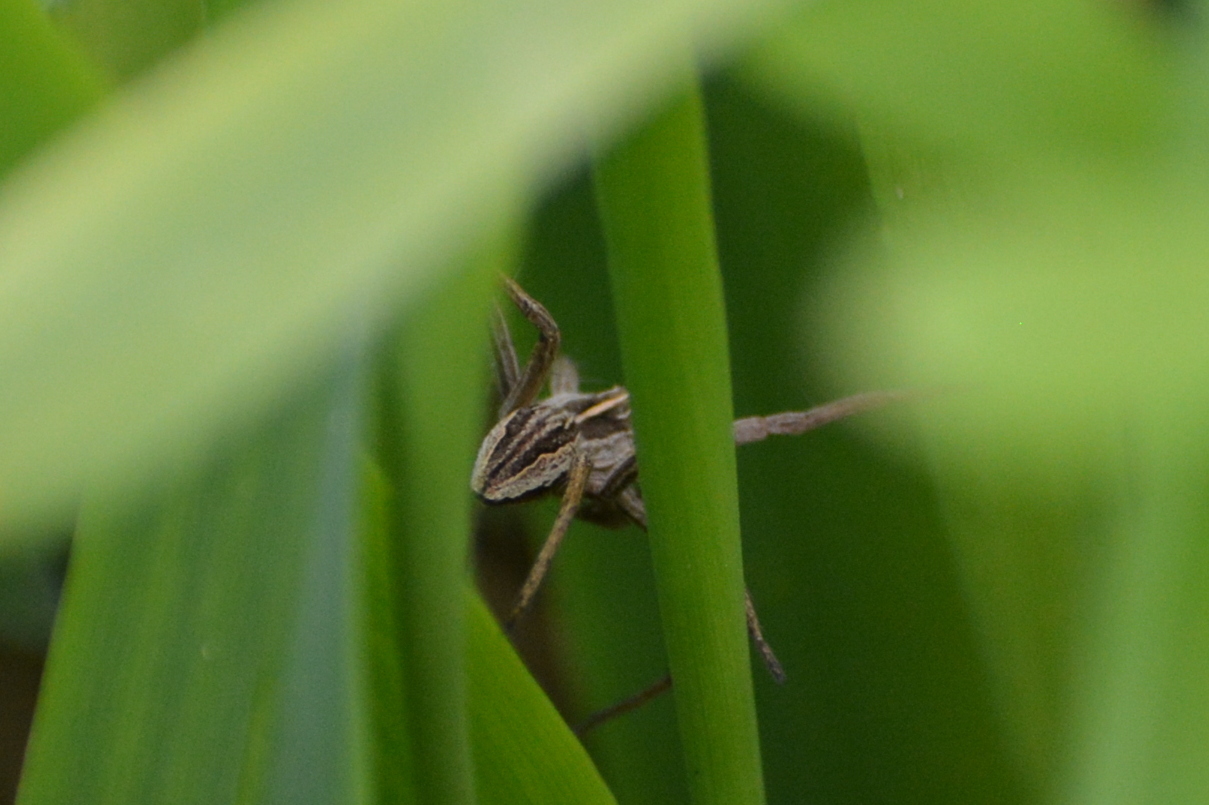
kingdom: Animalia
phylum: Arthropoda
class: Arachnida
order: Araneae
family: Pisauridae
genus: Pisaura
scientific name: Pisaura mirabilis
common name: Tent spider
